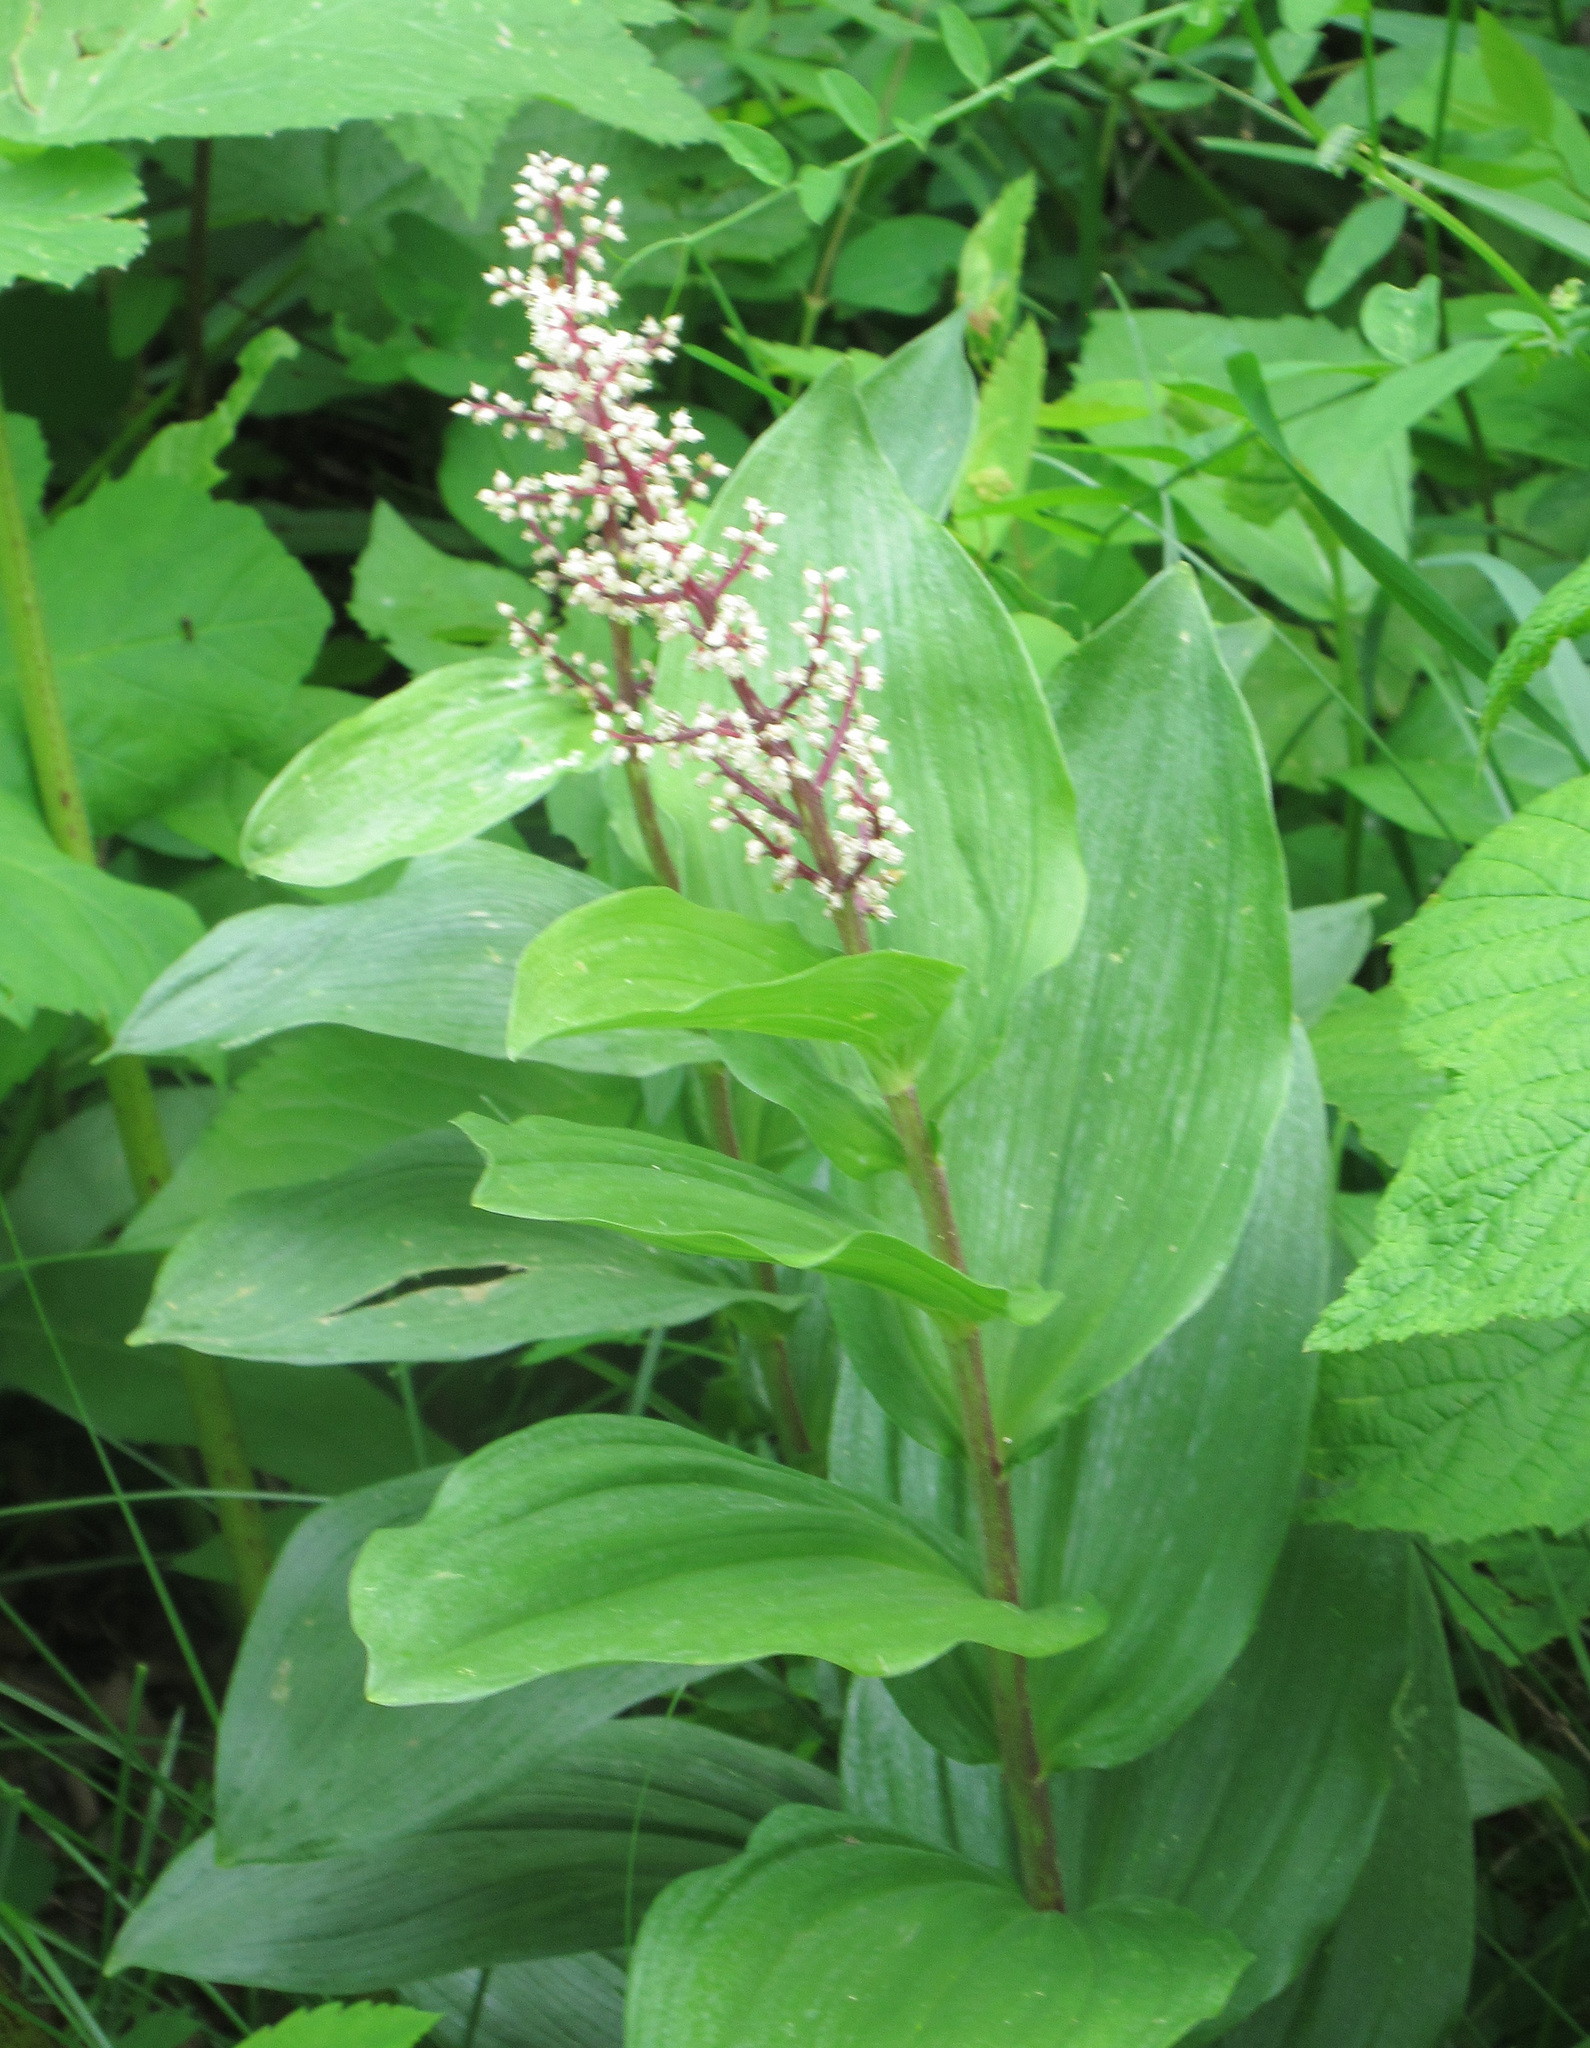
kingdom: Plantae
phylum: Tracheophyta
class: Liliopsida
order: Asparagales
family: Asparagaceae
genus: Maianthemum
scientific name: Maianthemum racemosum
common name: False spikenard
